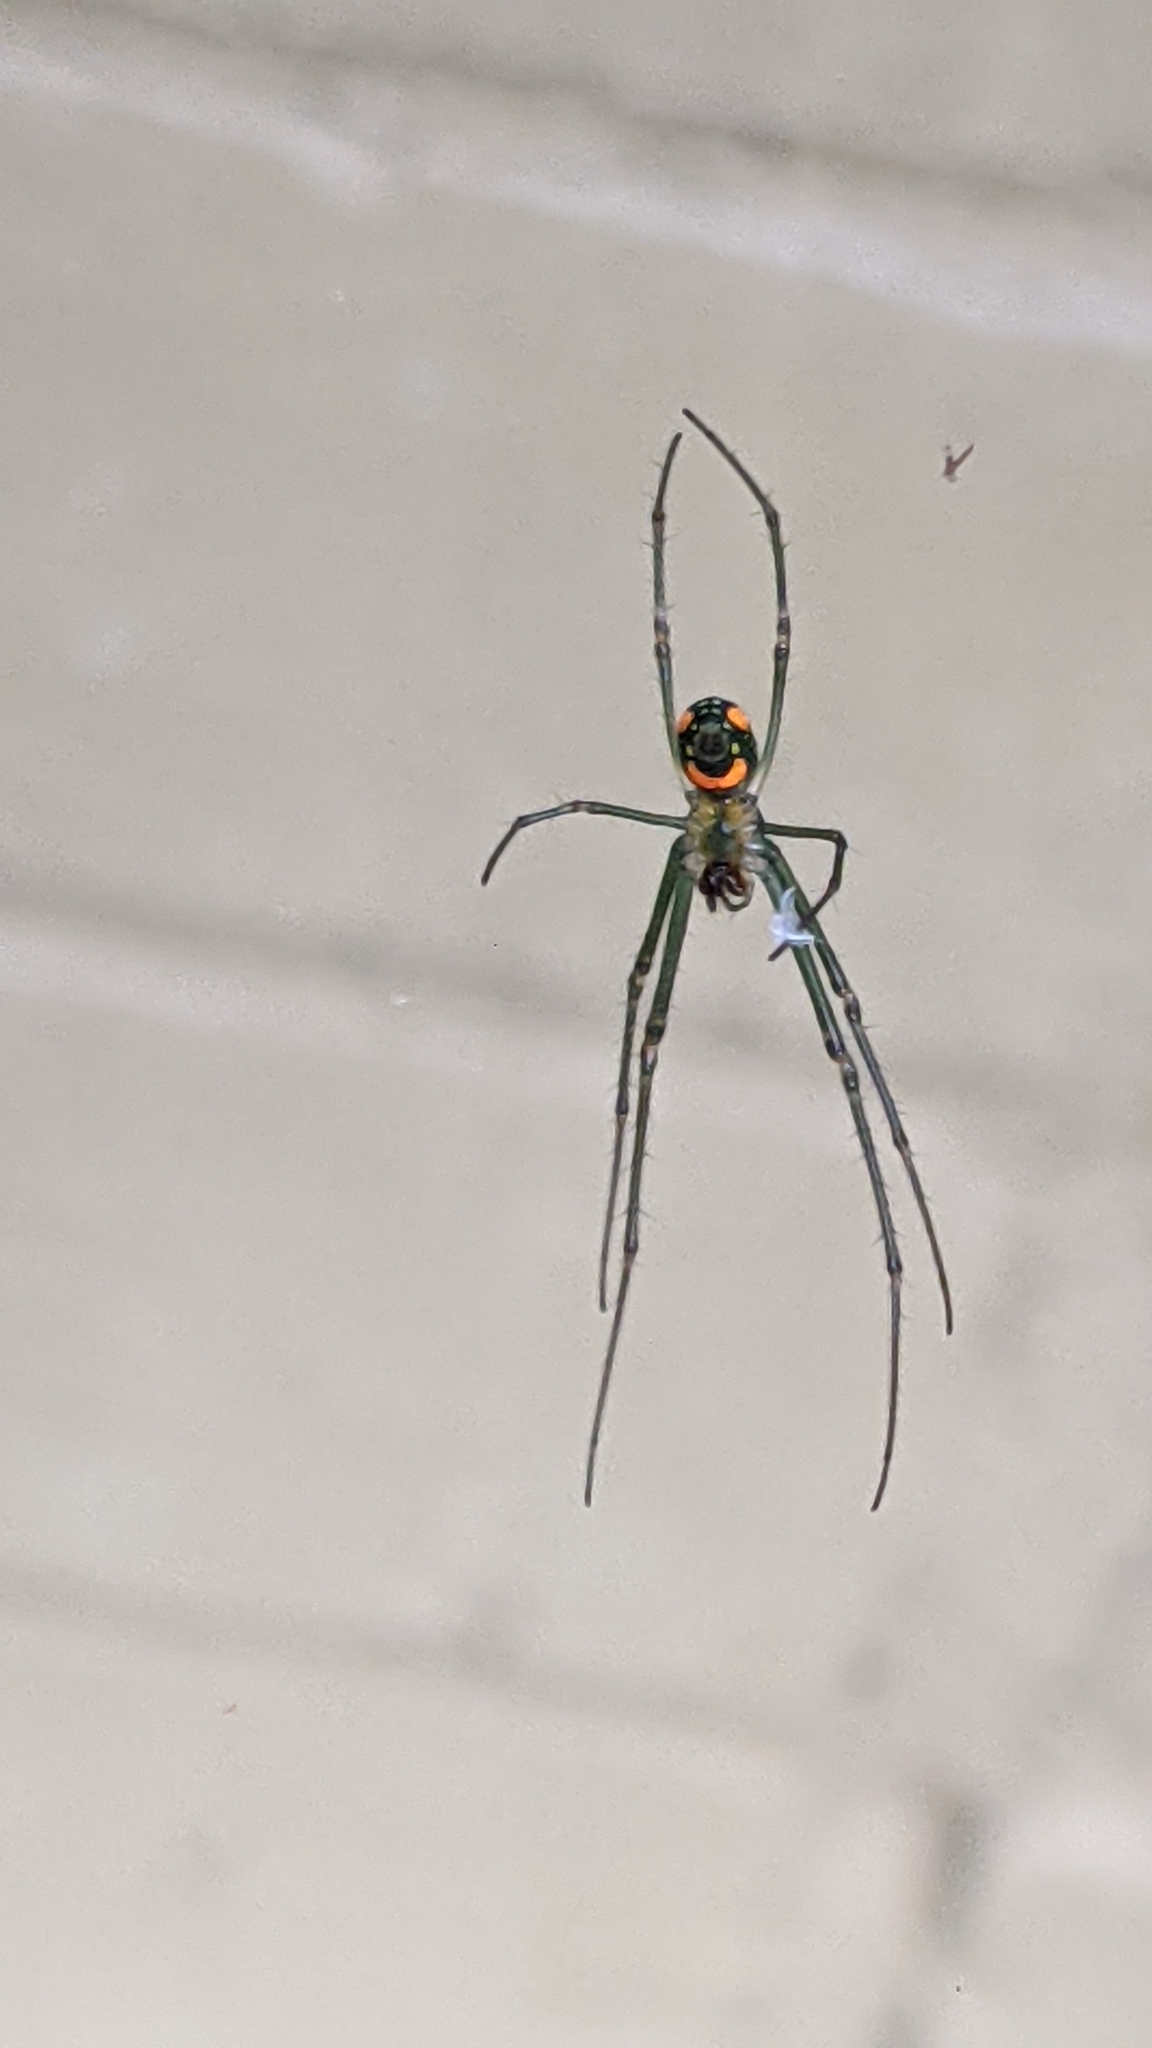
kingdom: Animalia
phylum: Arthropoda
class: Arachnida
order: Araneae
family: Tetragnathidae
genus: Leucauge
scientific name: Leucauge argyrobapta
